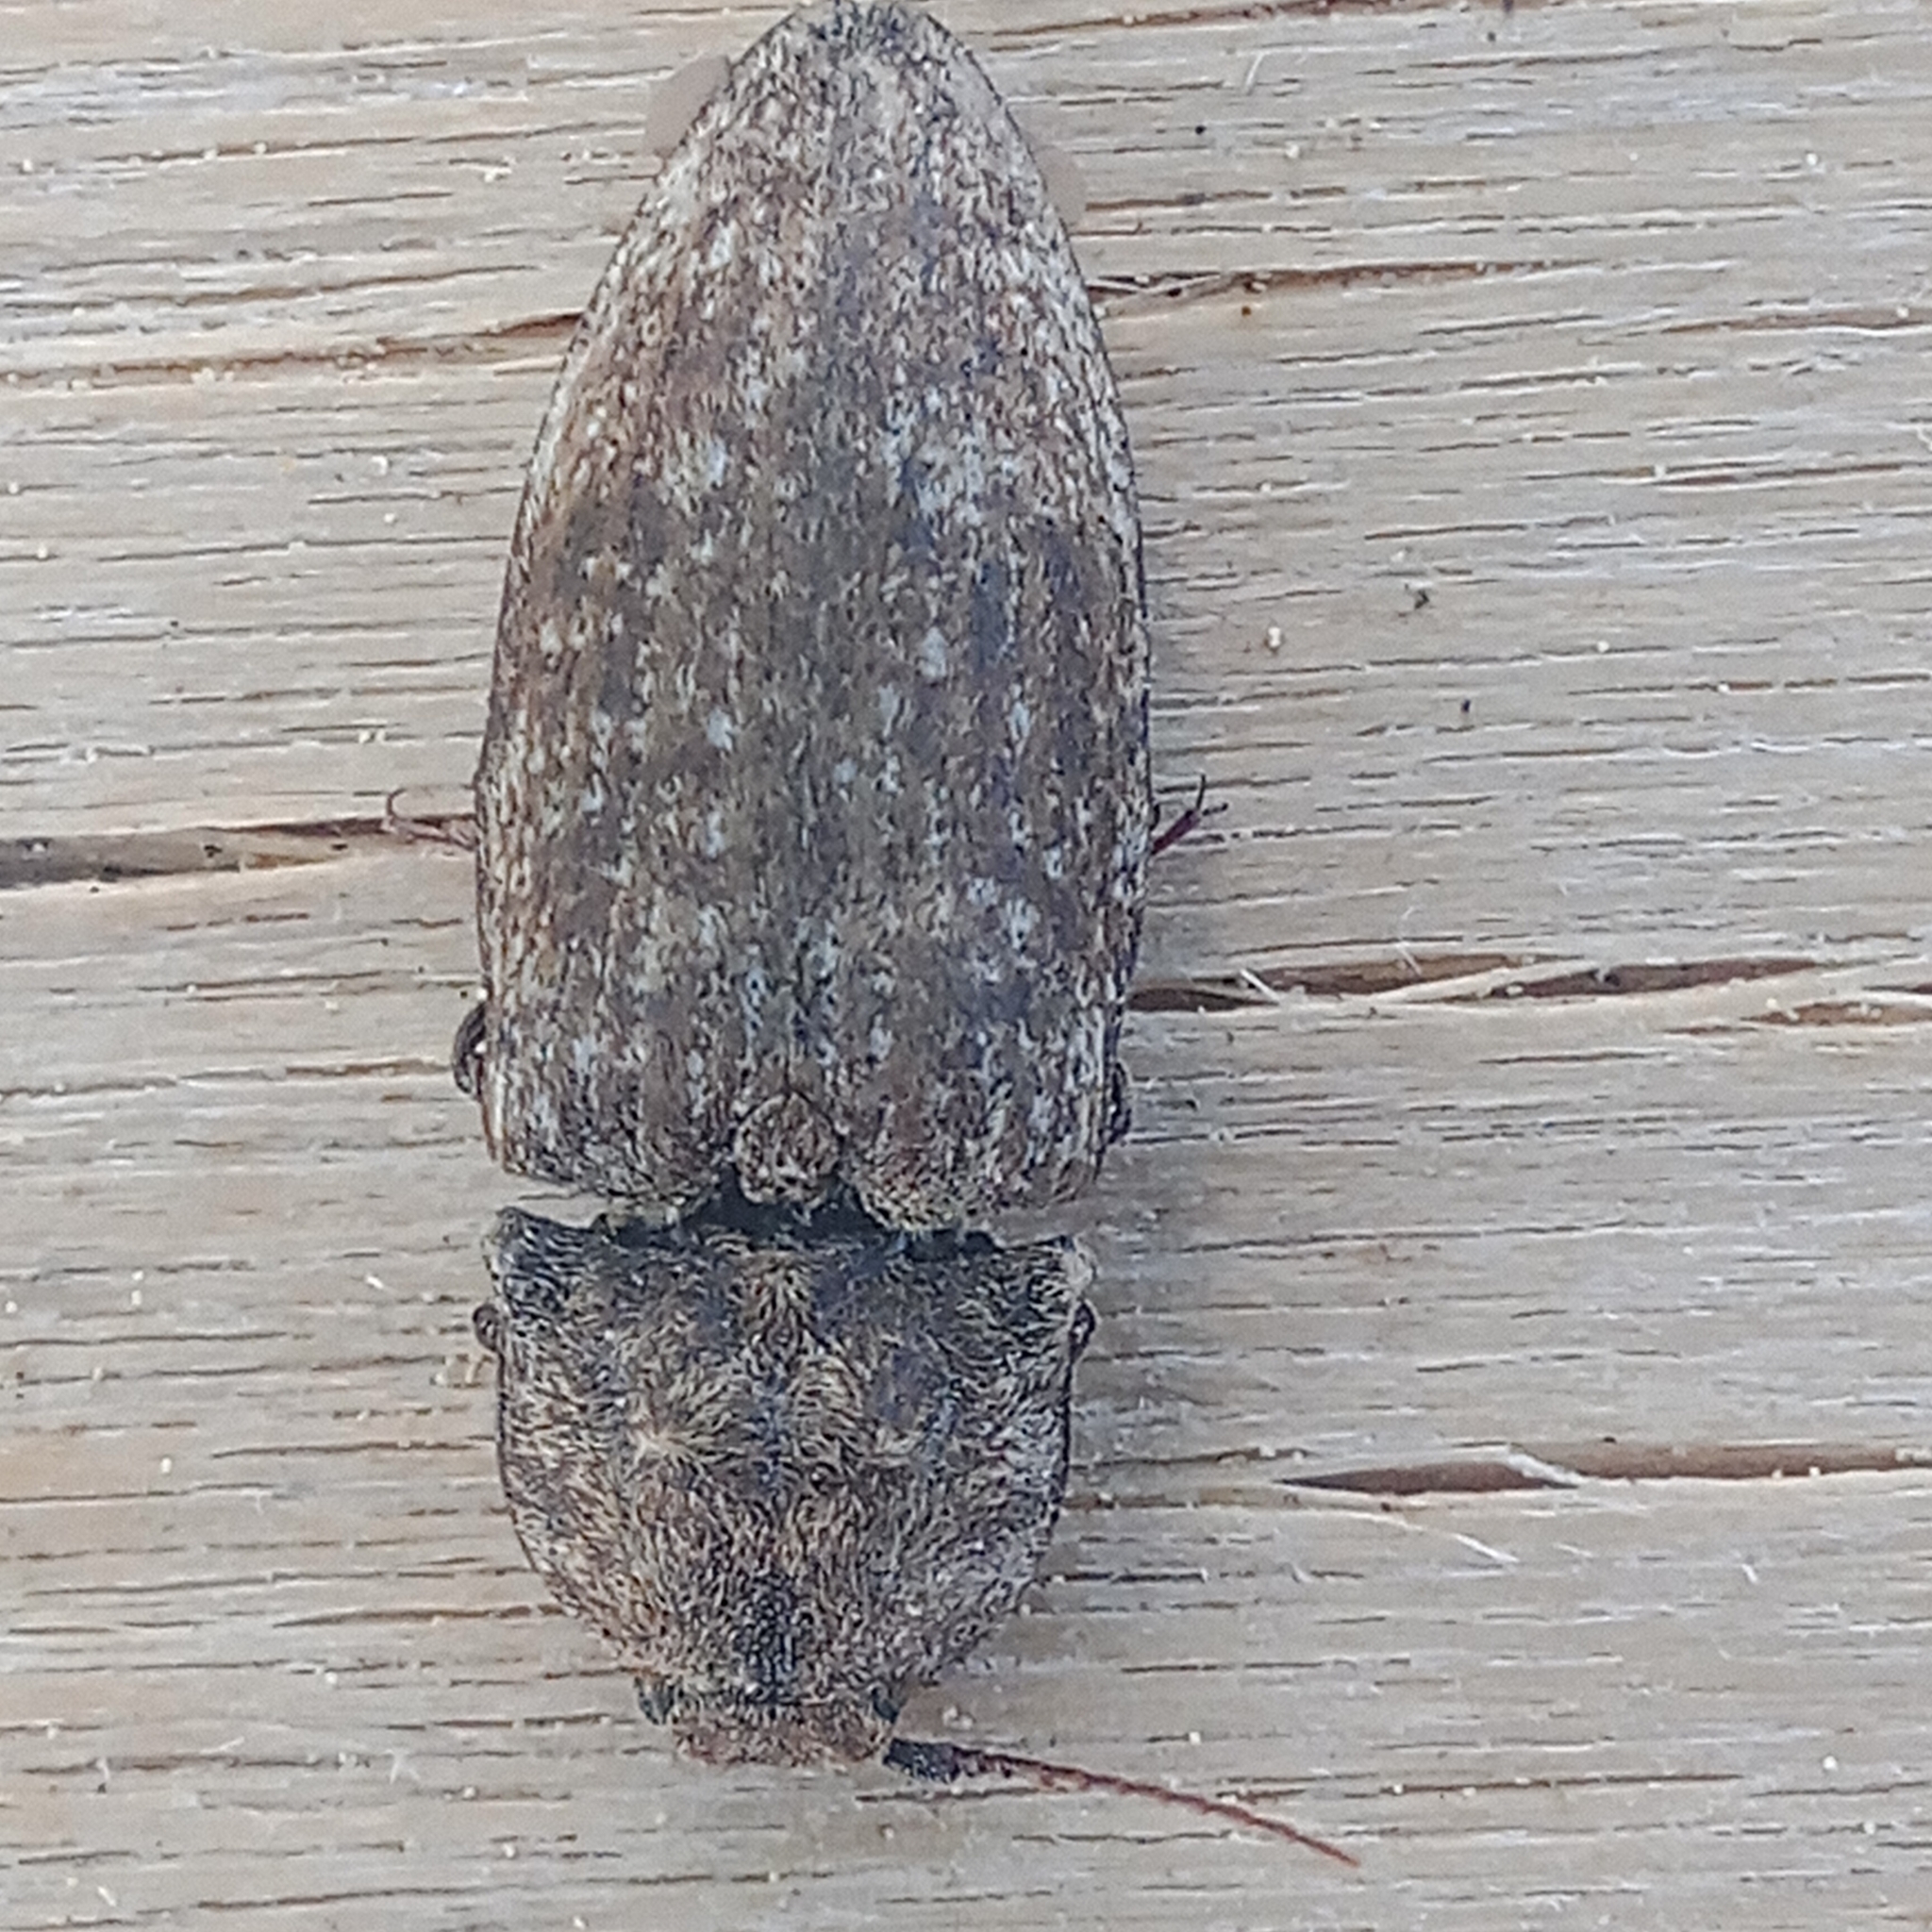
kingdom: Animalia
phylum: Arthropoda
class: Insecta
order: Coleoptera
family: Elateridae
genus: Agrypnus
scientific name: Agrypnus murinus
